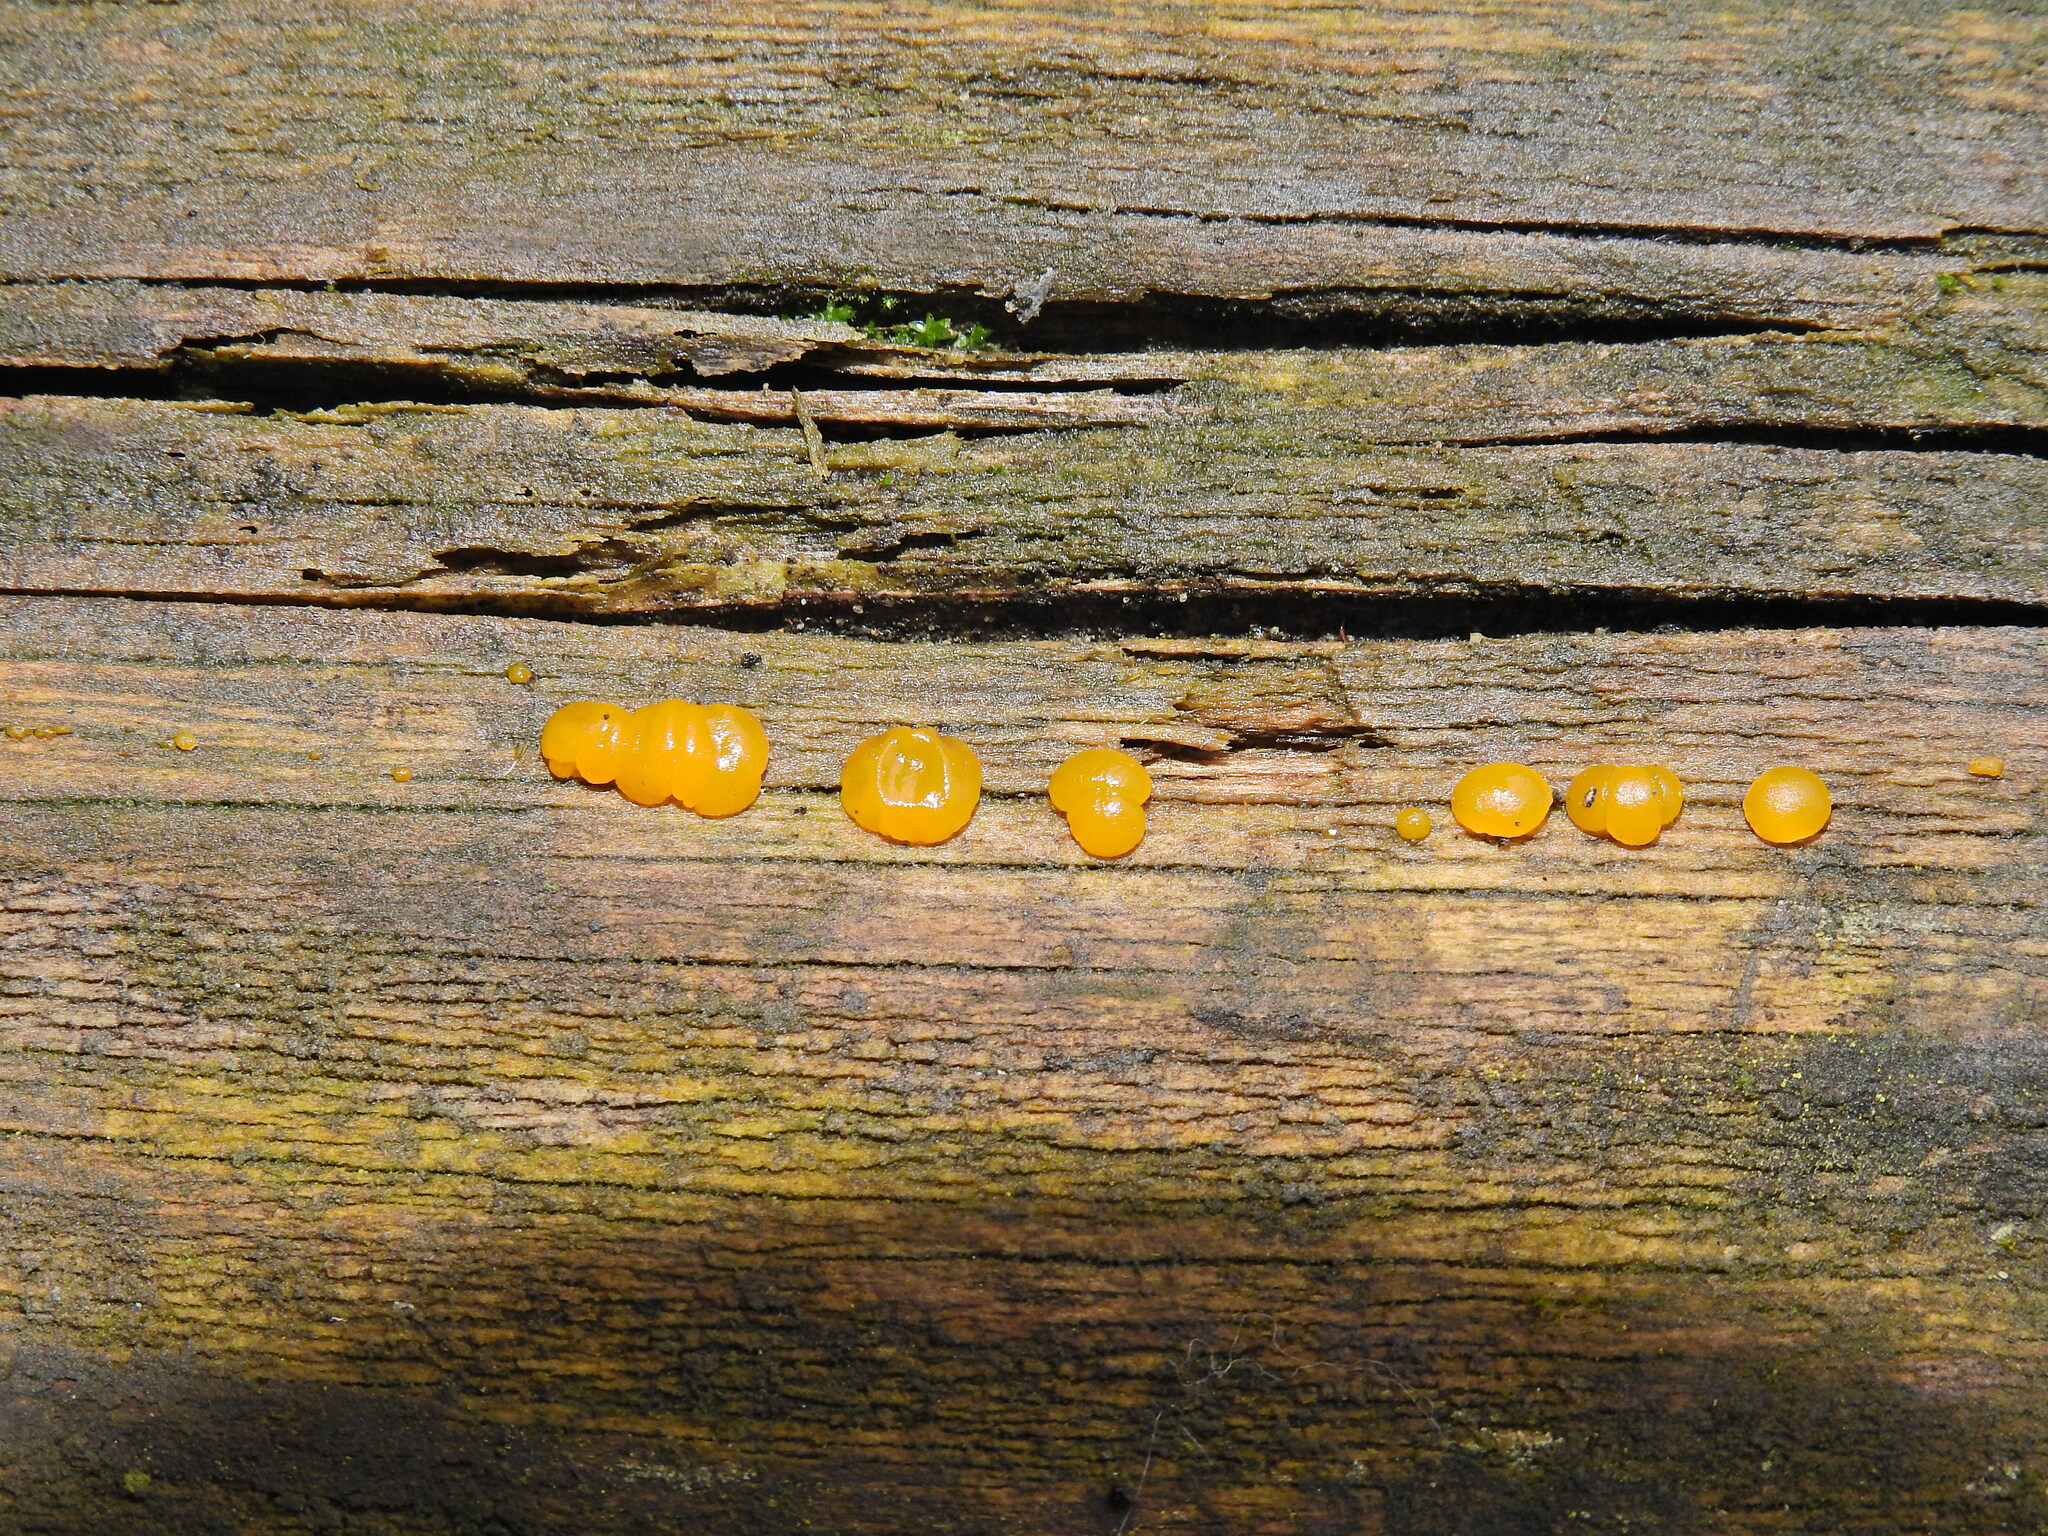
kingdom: Fungi
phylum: Basidiomycota
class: Dacrymycetes
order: Dacrymycetales
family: Dacrymycetaceae
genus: Dacrymyces
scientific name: Dacrymyces stillatus
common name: Common jelly spot
